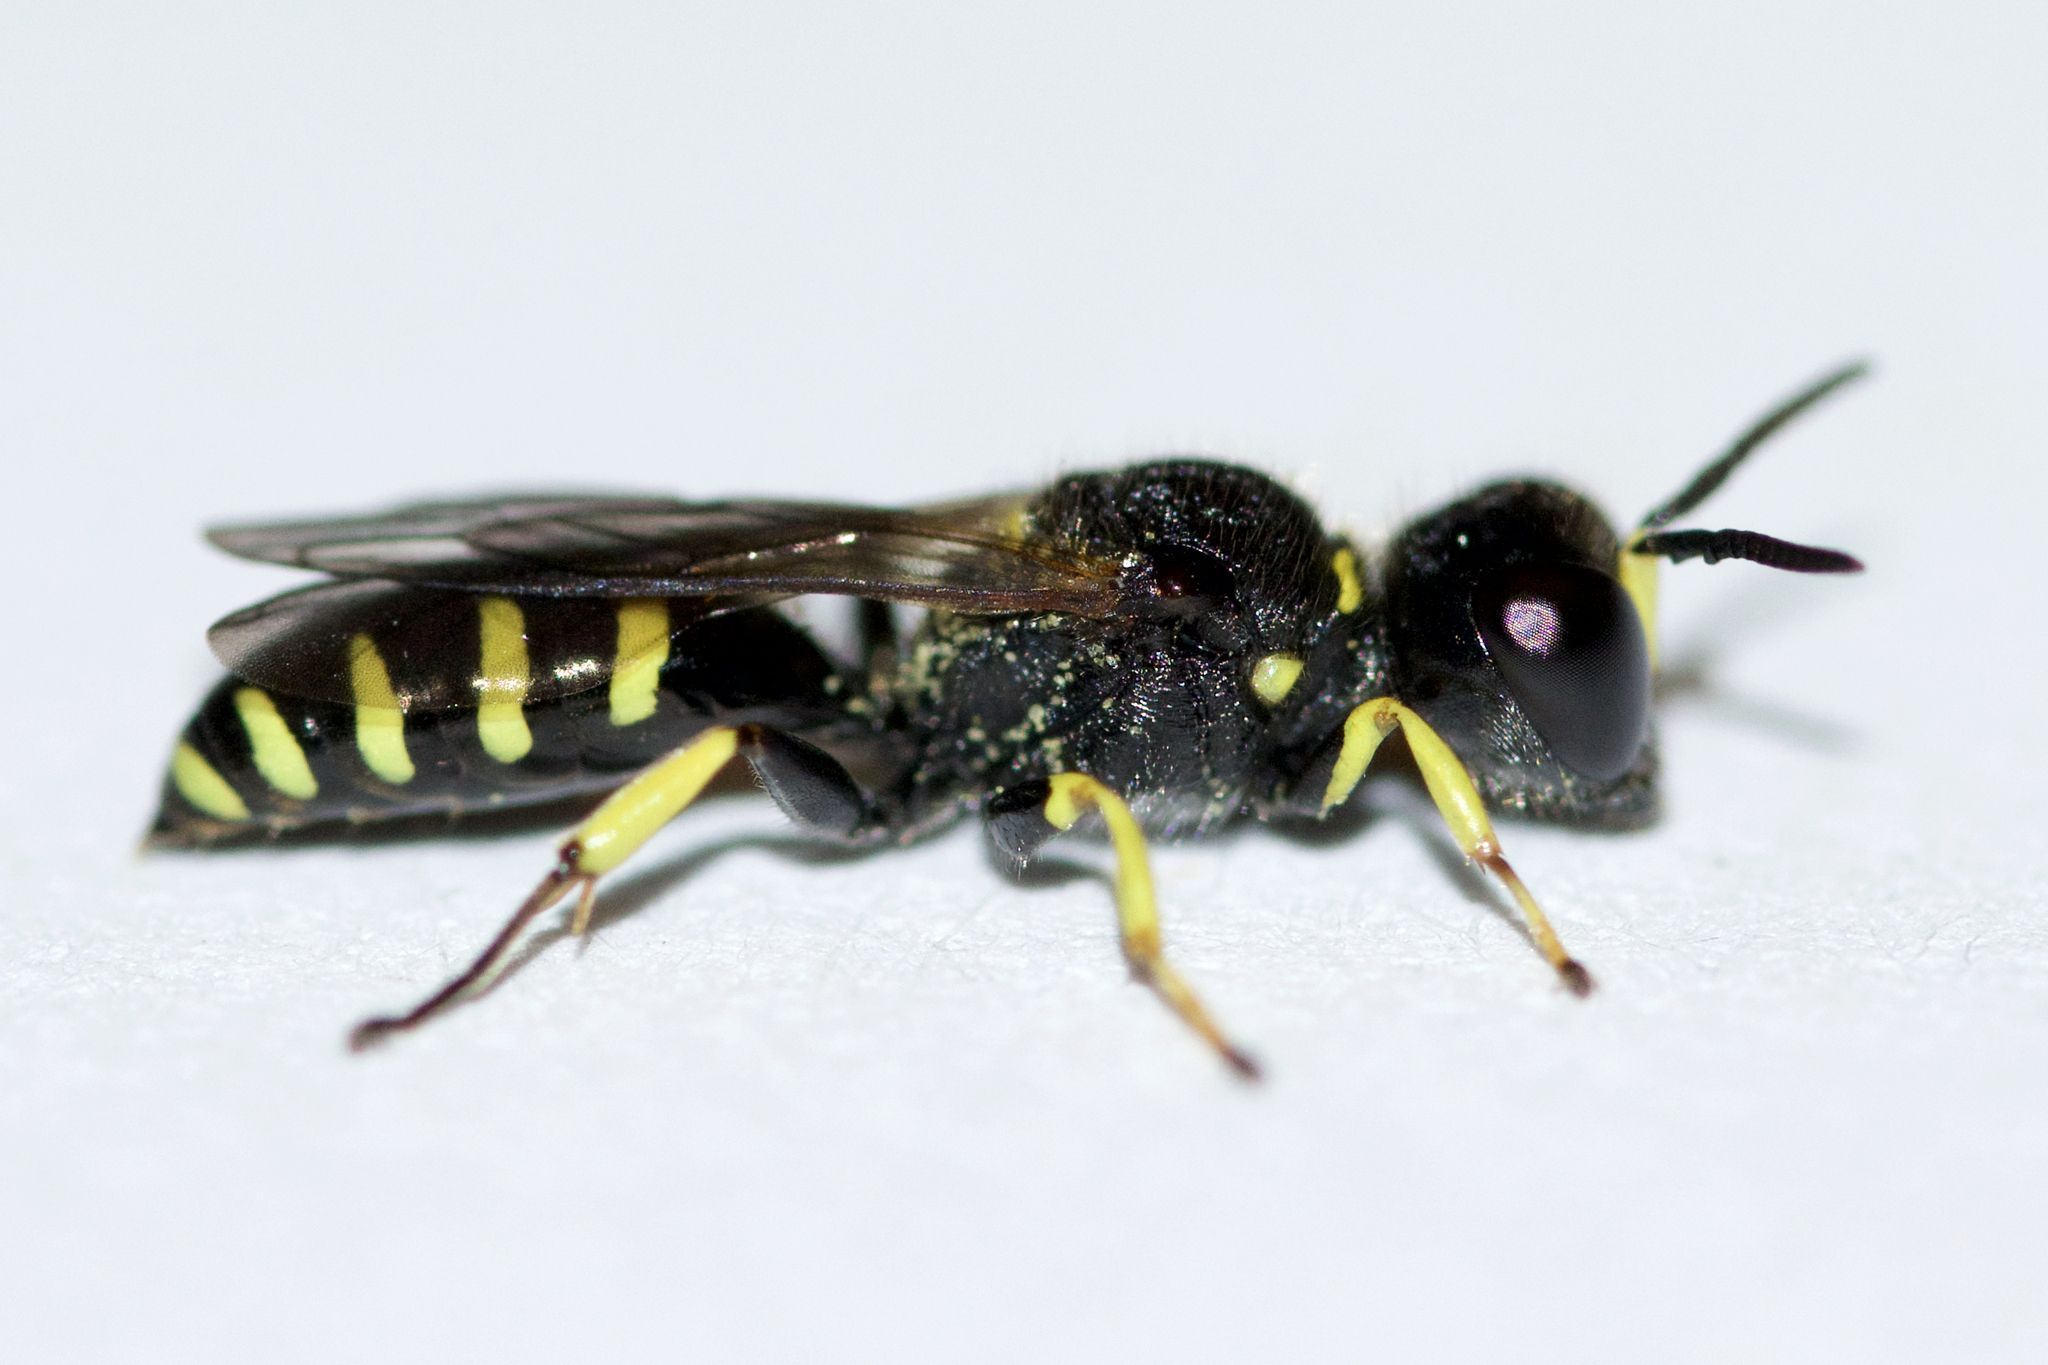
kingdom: Animalia
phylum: Arthropoda
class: Insecta
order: Hymenoptera
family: Crabronidae
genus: Ectemnius
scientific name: Ectemnius lapidarius
